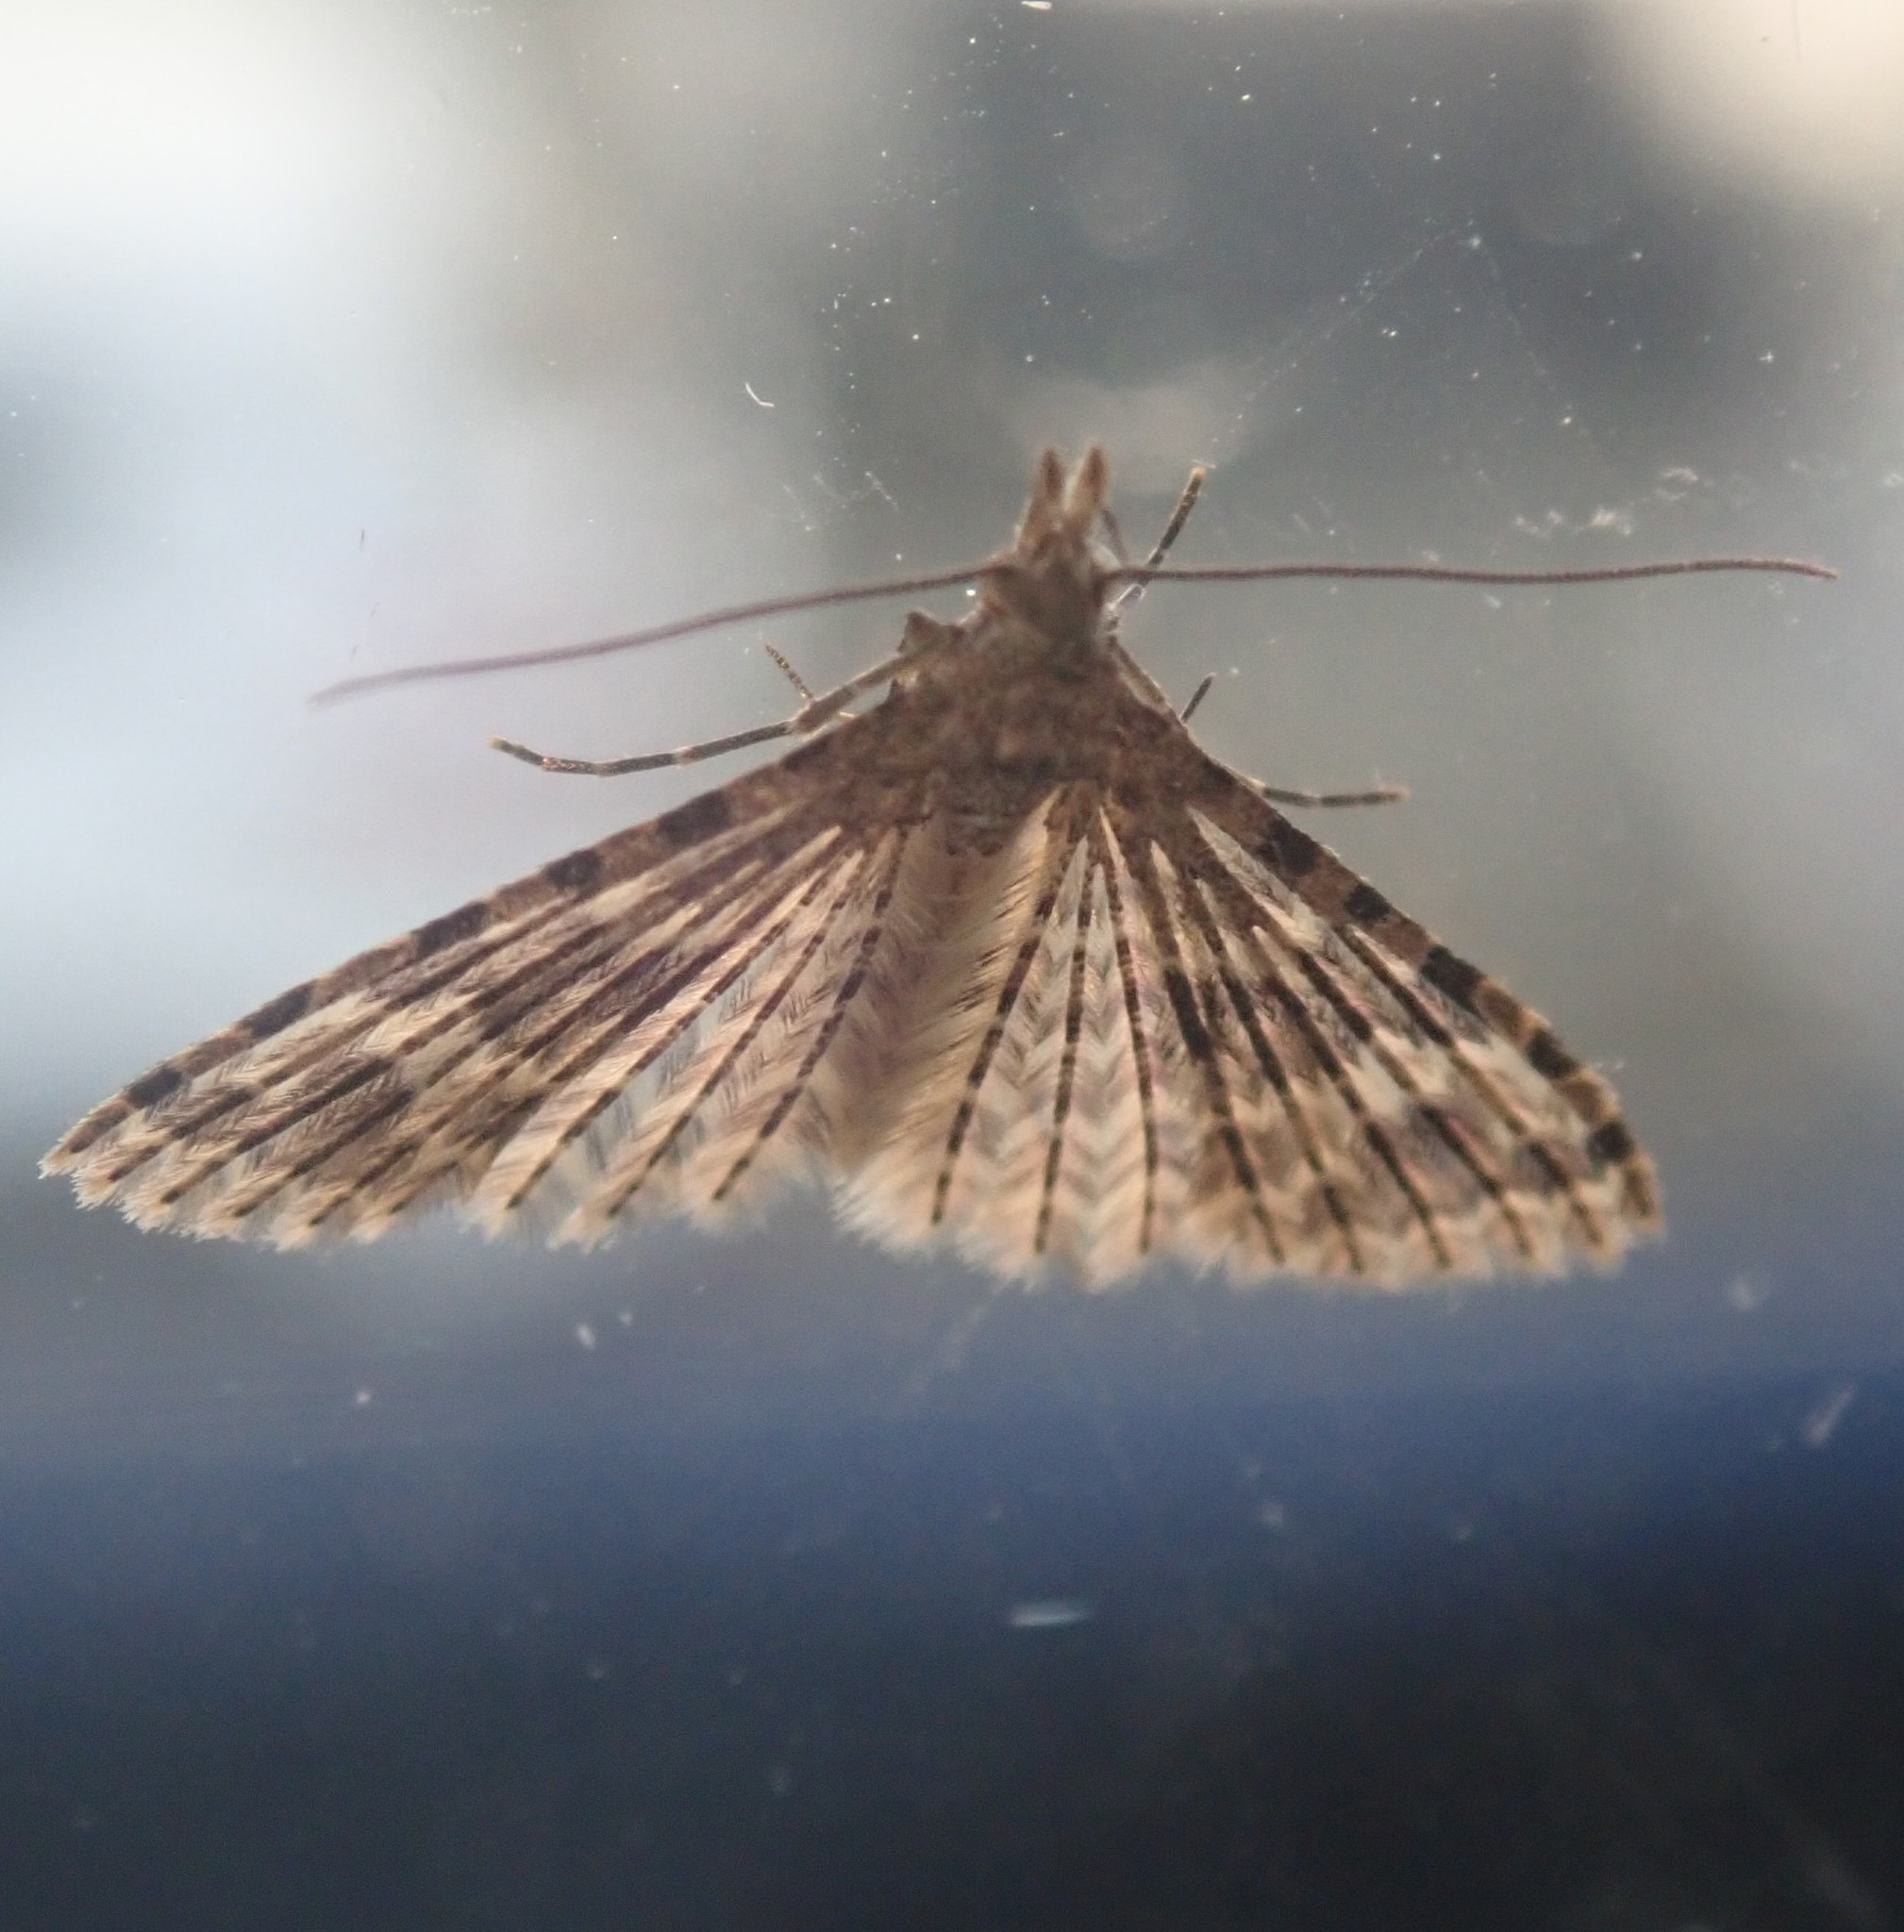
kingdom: Animalia
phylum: Arthropoda
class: Insecta
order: Lepidoptera
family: Alucitidae
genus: Alucita
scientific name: Alucita hexadactyla
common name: Twenty-plume moth
